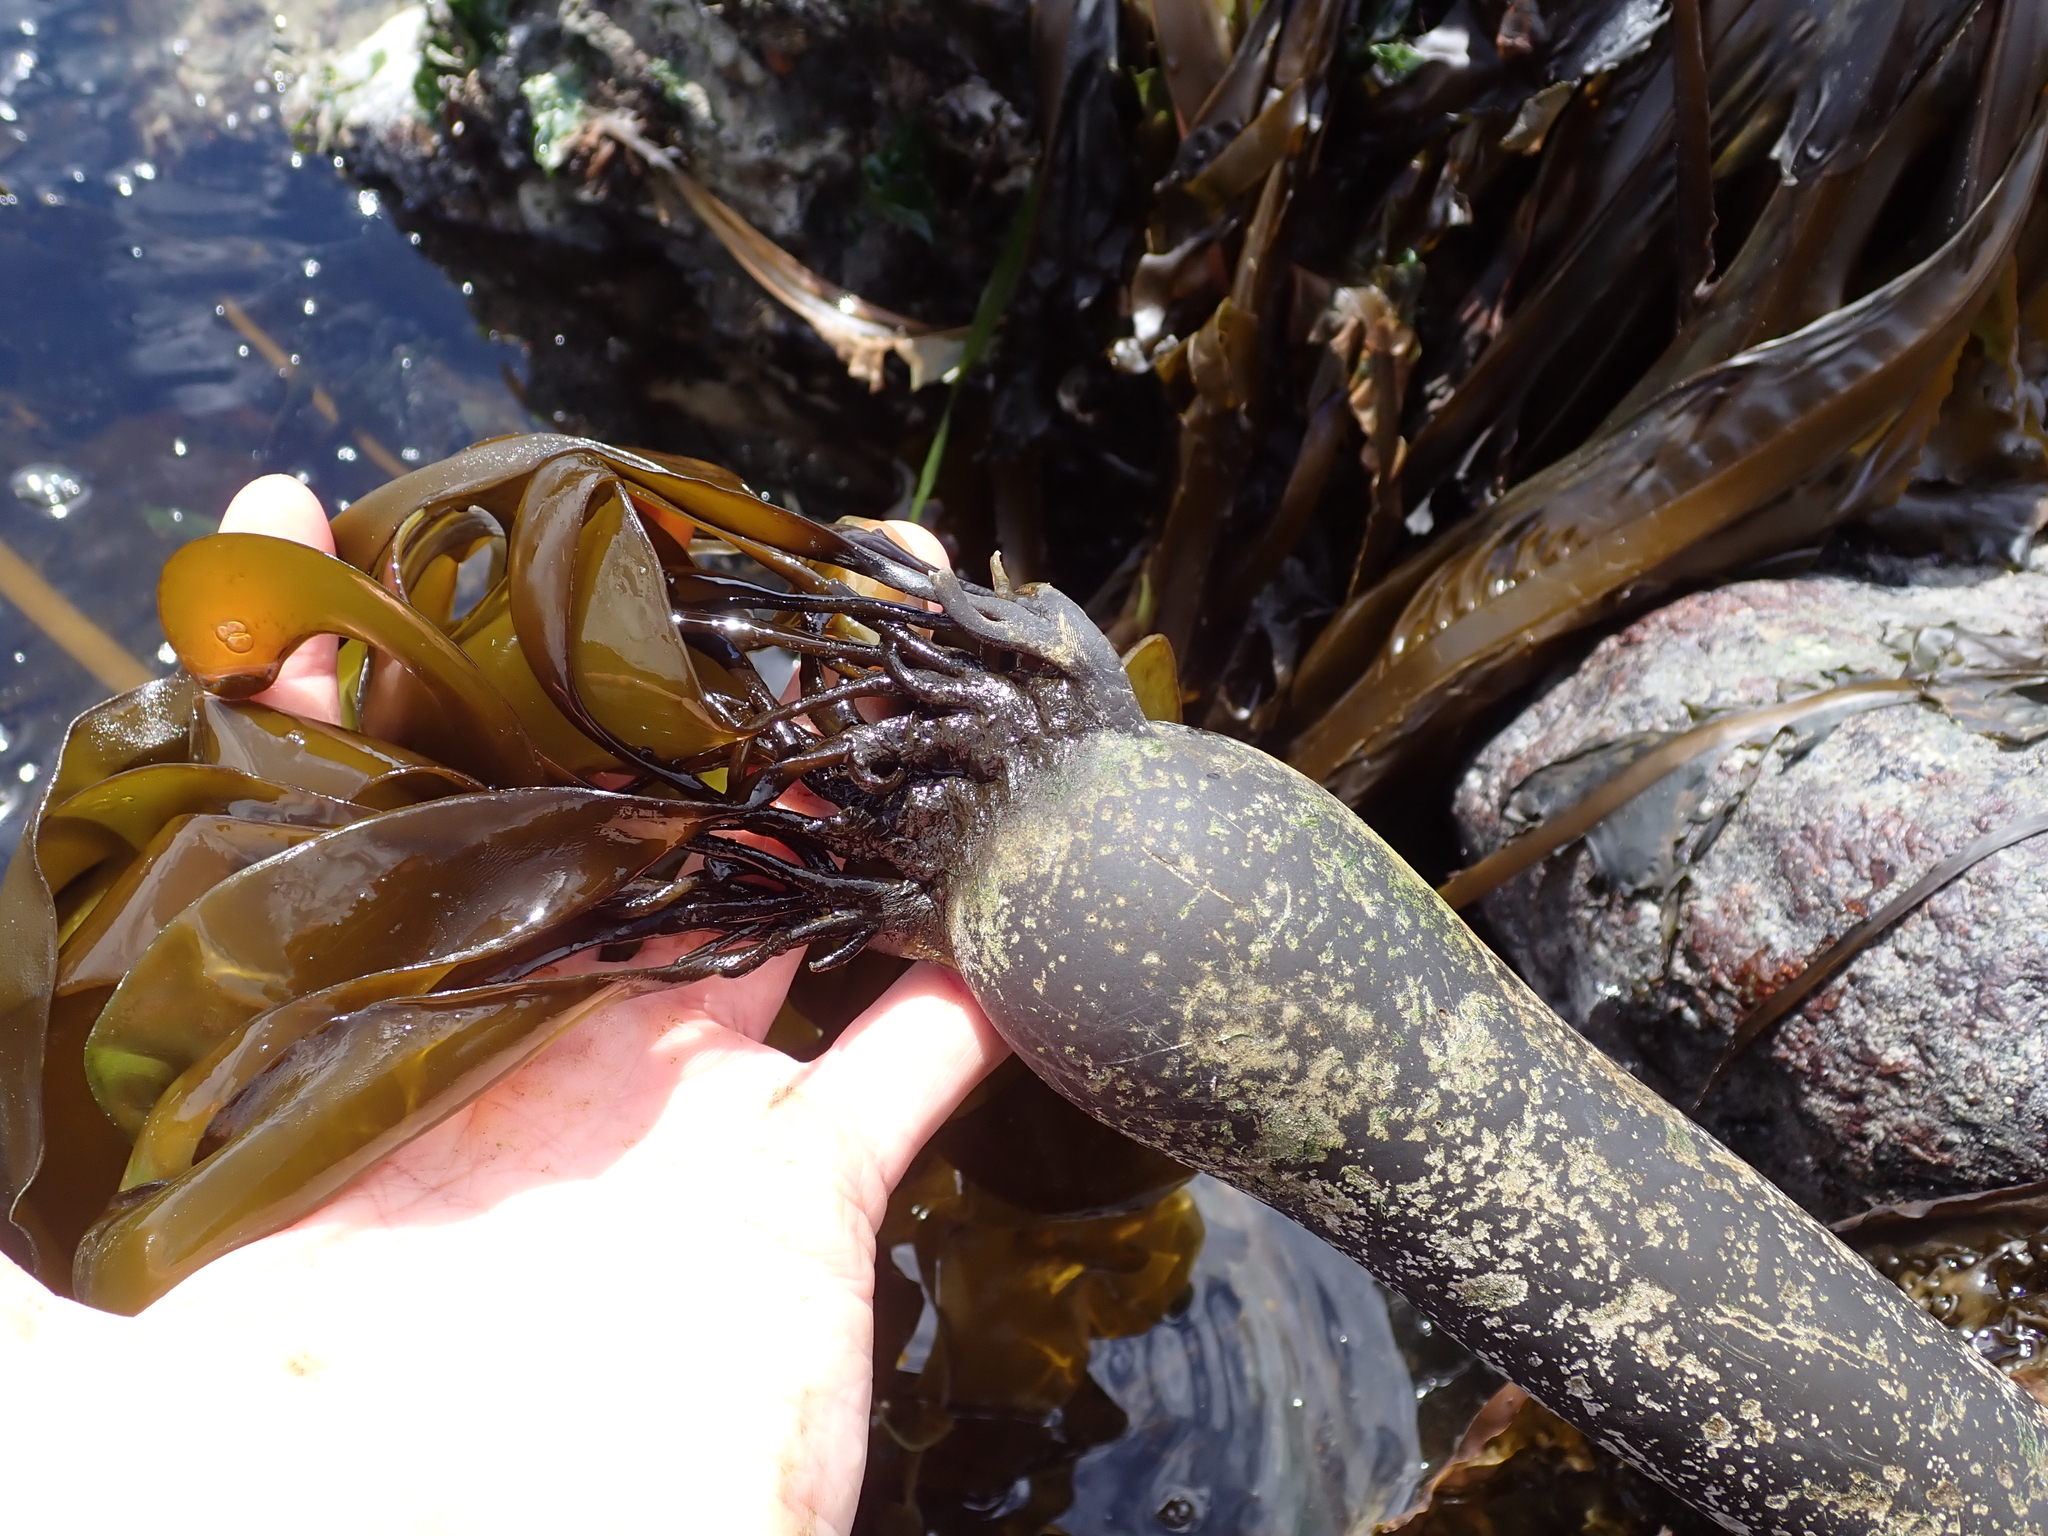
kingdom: Chromista
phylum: Ochrophyta
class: Phaeophyceae
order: Laminariales
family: Laminariaceae
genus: Nereocystis
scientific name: Nereocystis luetkeana
